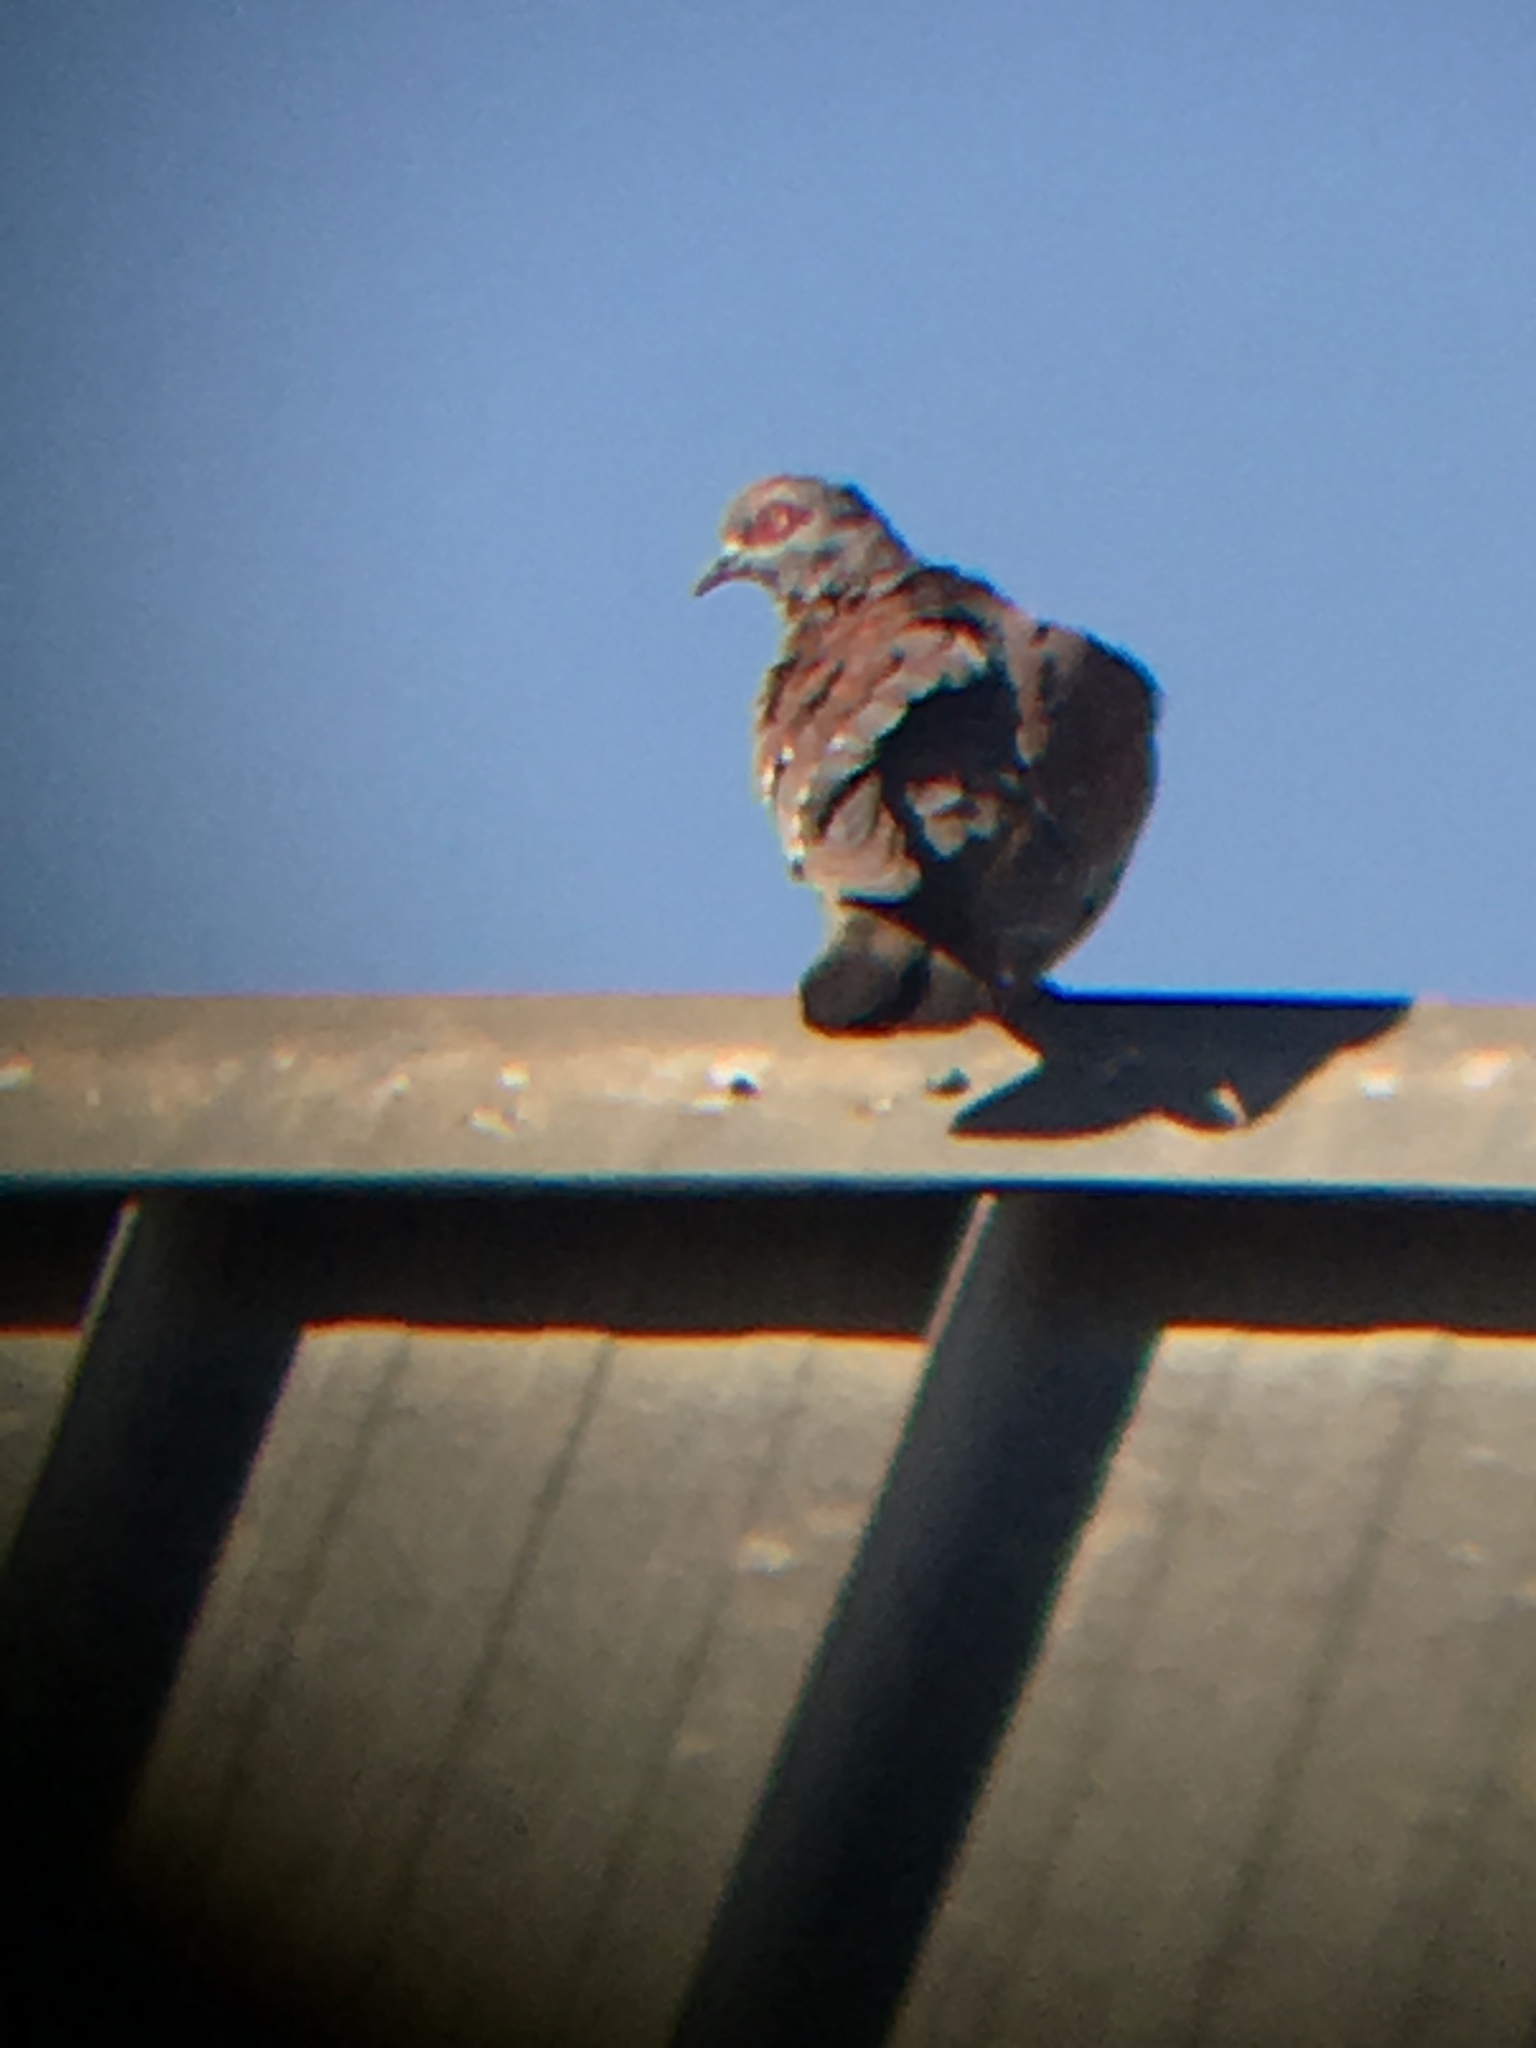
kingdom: Animalia
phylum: Chordata
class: Aves
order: Columbiformes
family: Columbidae
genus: Columba
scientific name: Columba guinea
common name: Speckled pigeon
